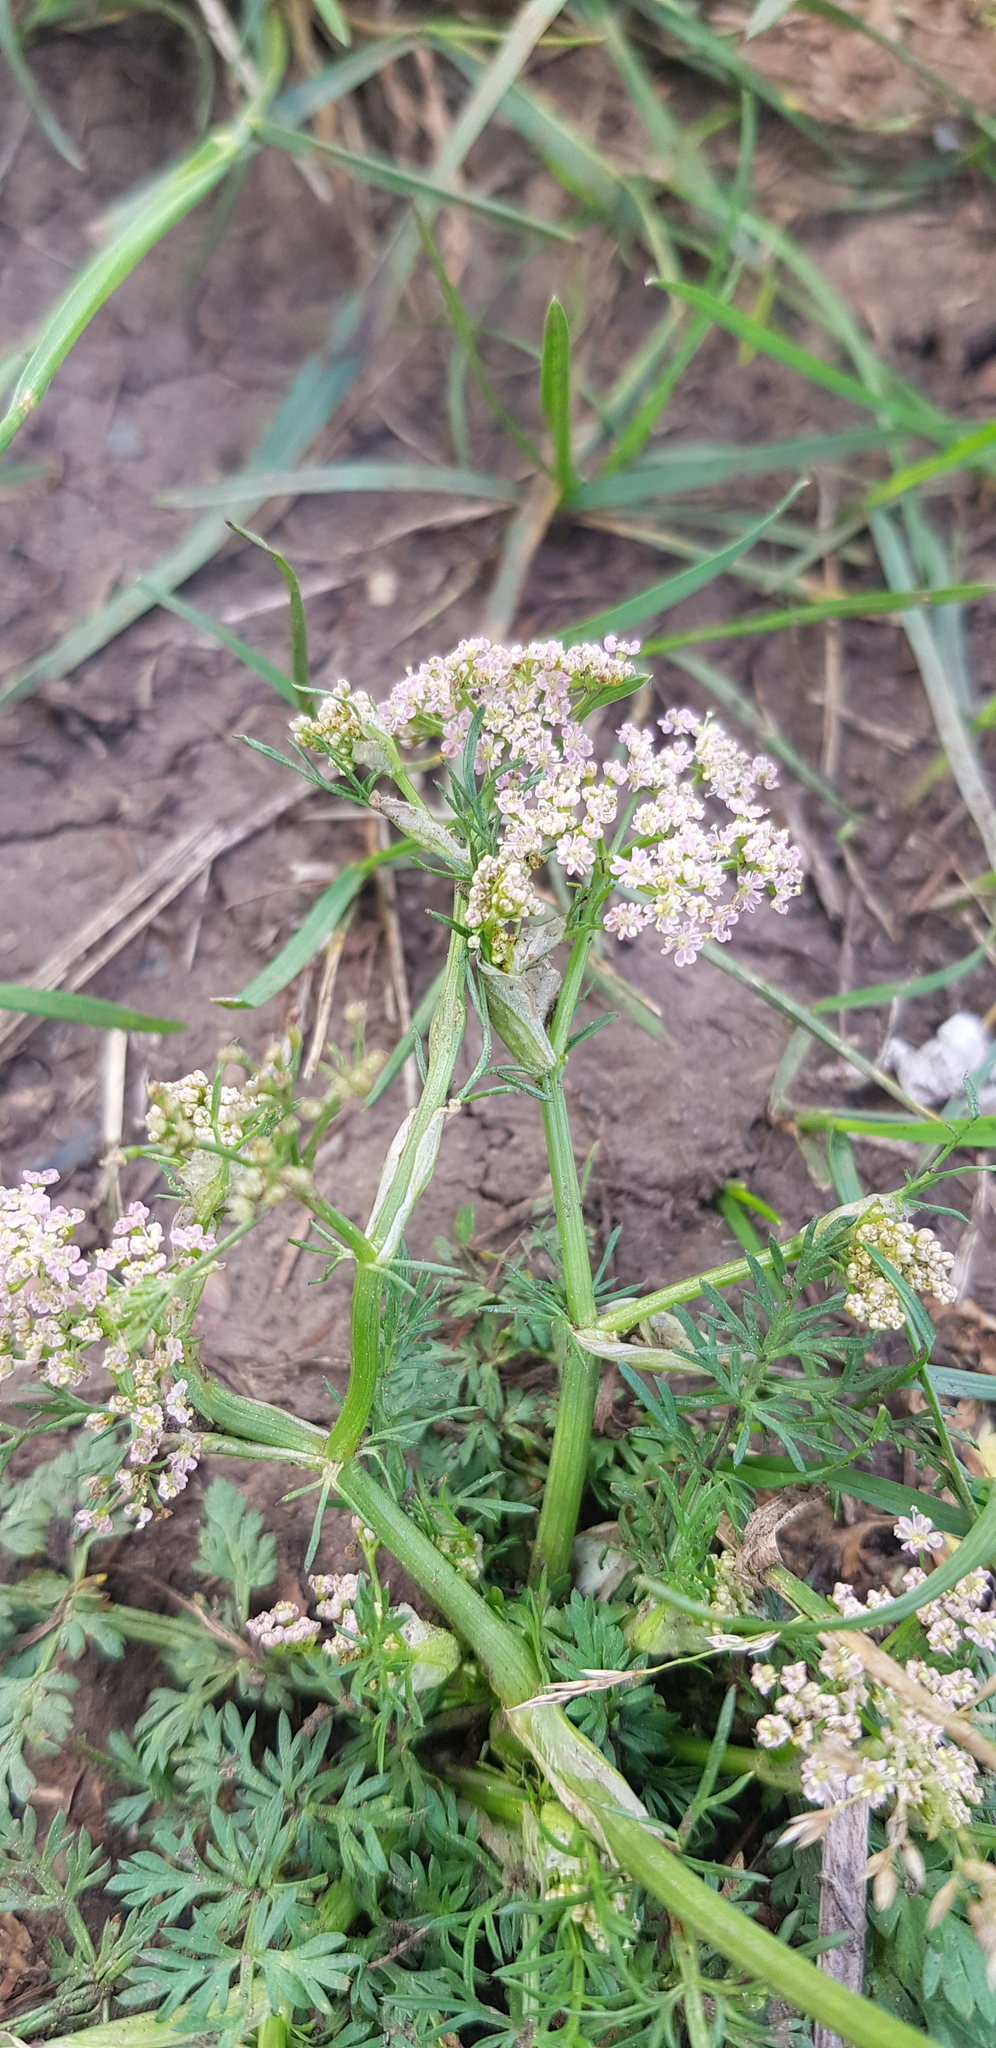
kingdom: Plantae
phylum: Tracheophyta
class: Magnoliopsida
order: Apiales
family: Apiaceae
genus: Carum
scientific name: Carum carvi
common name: Caraway
